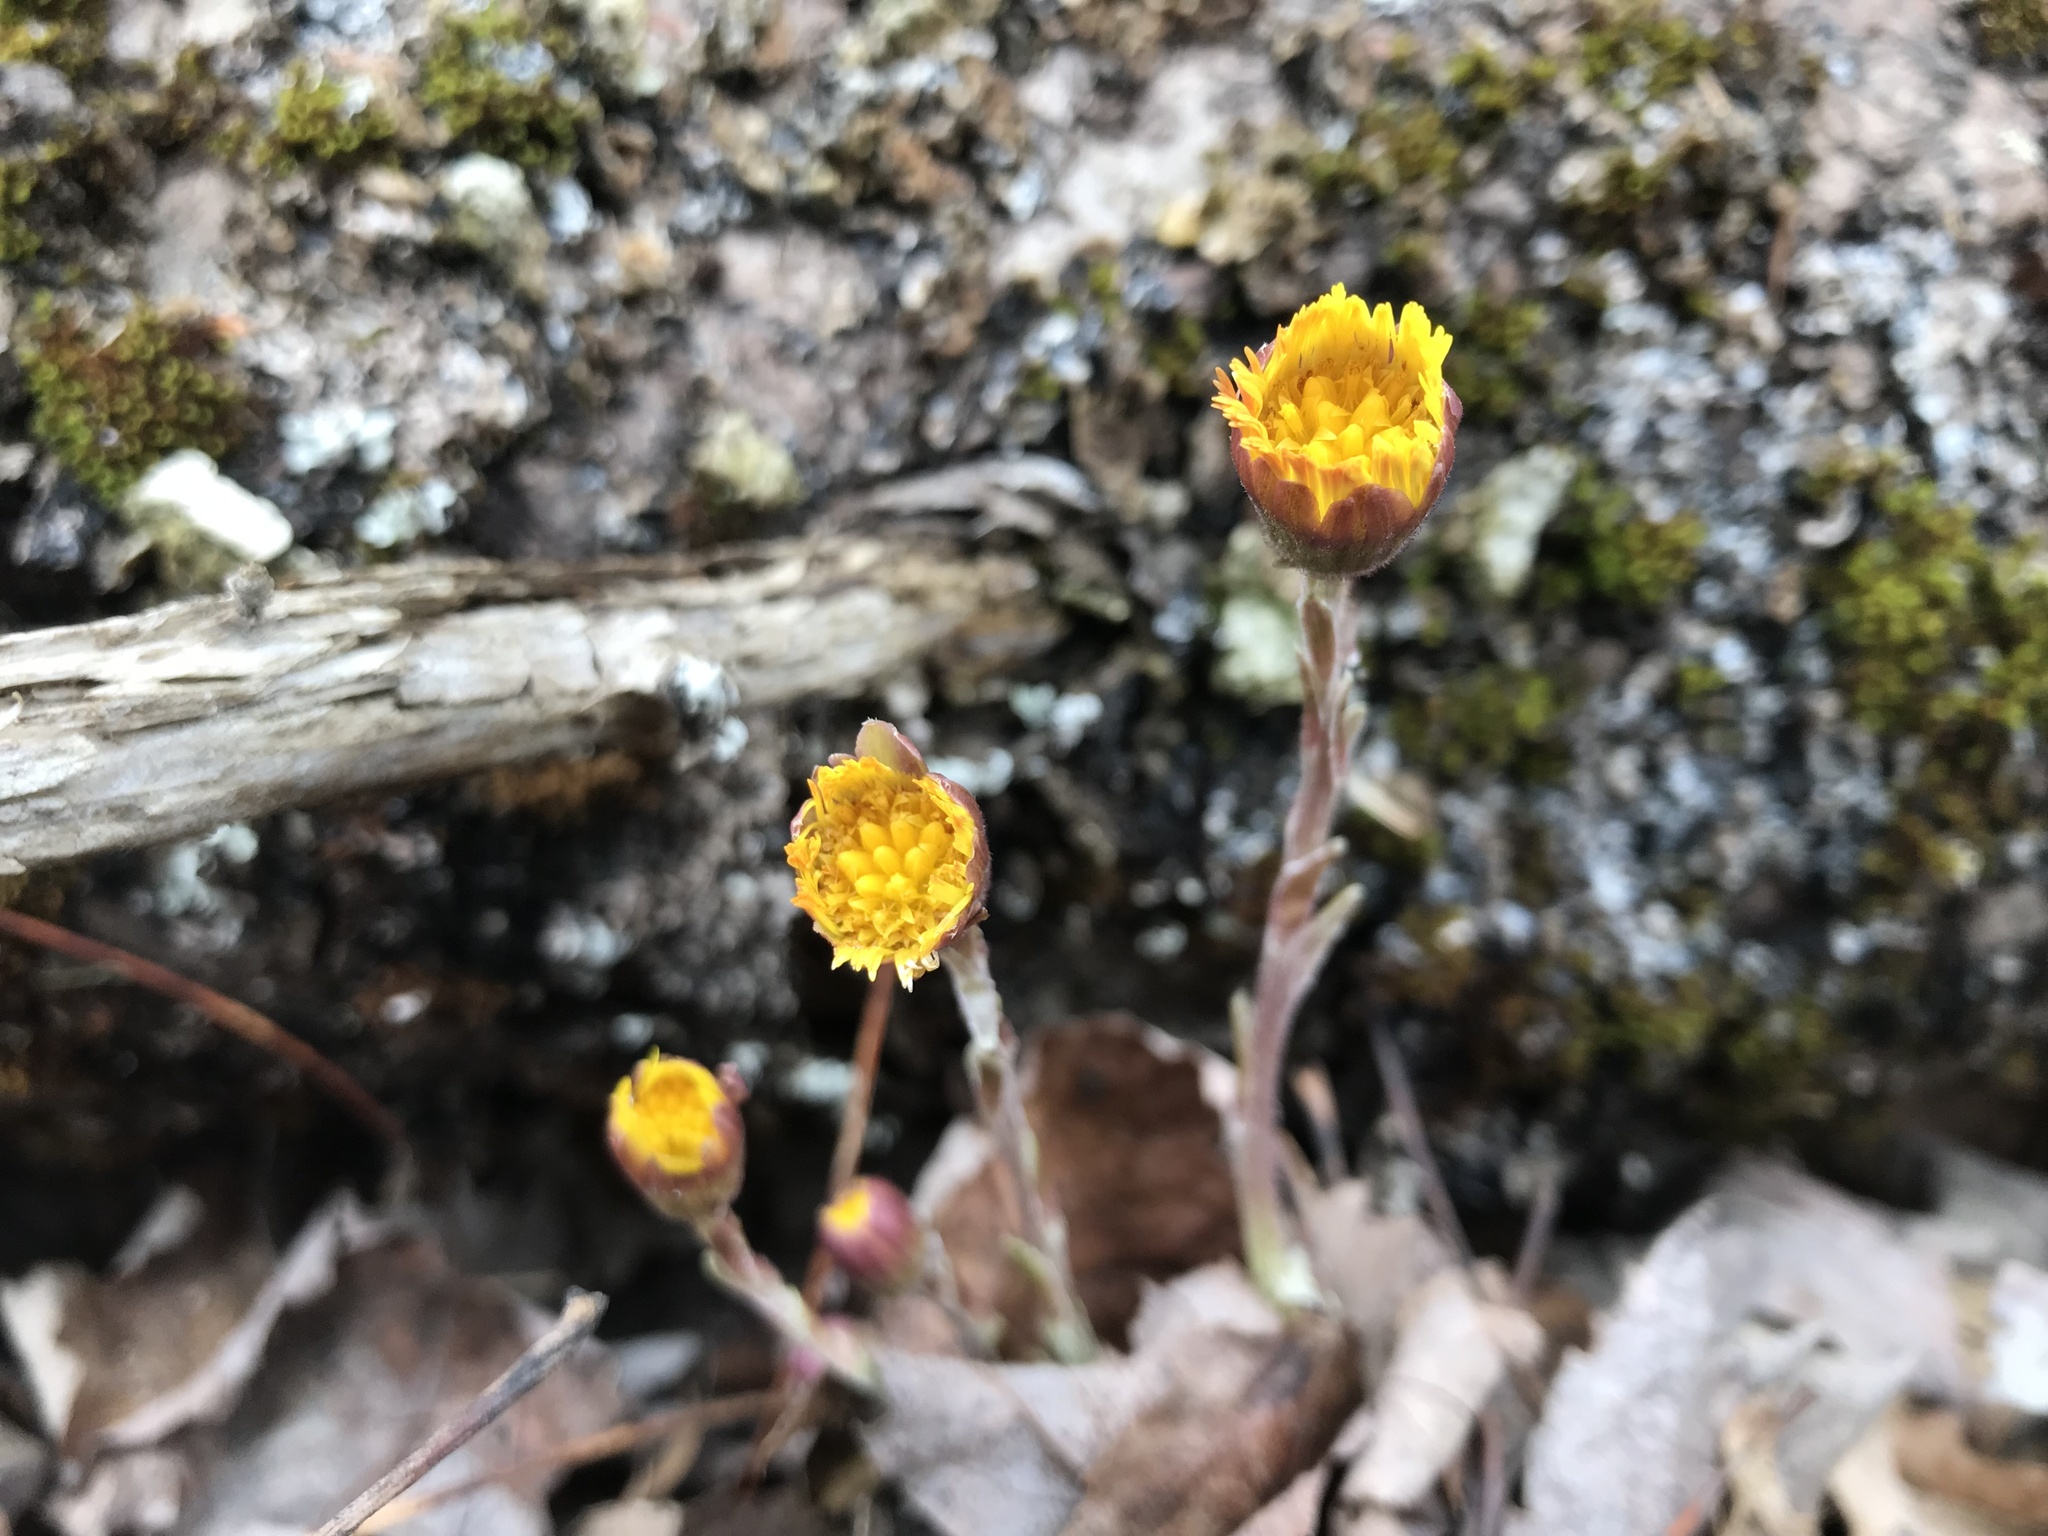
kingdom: Plantae
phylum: Tracheophyta
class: Magnoliopsida
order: Asterales
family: Asteraceae
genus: Tussilago
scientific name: Tussilago farfara
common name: Coltsfoot
